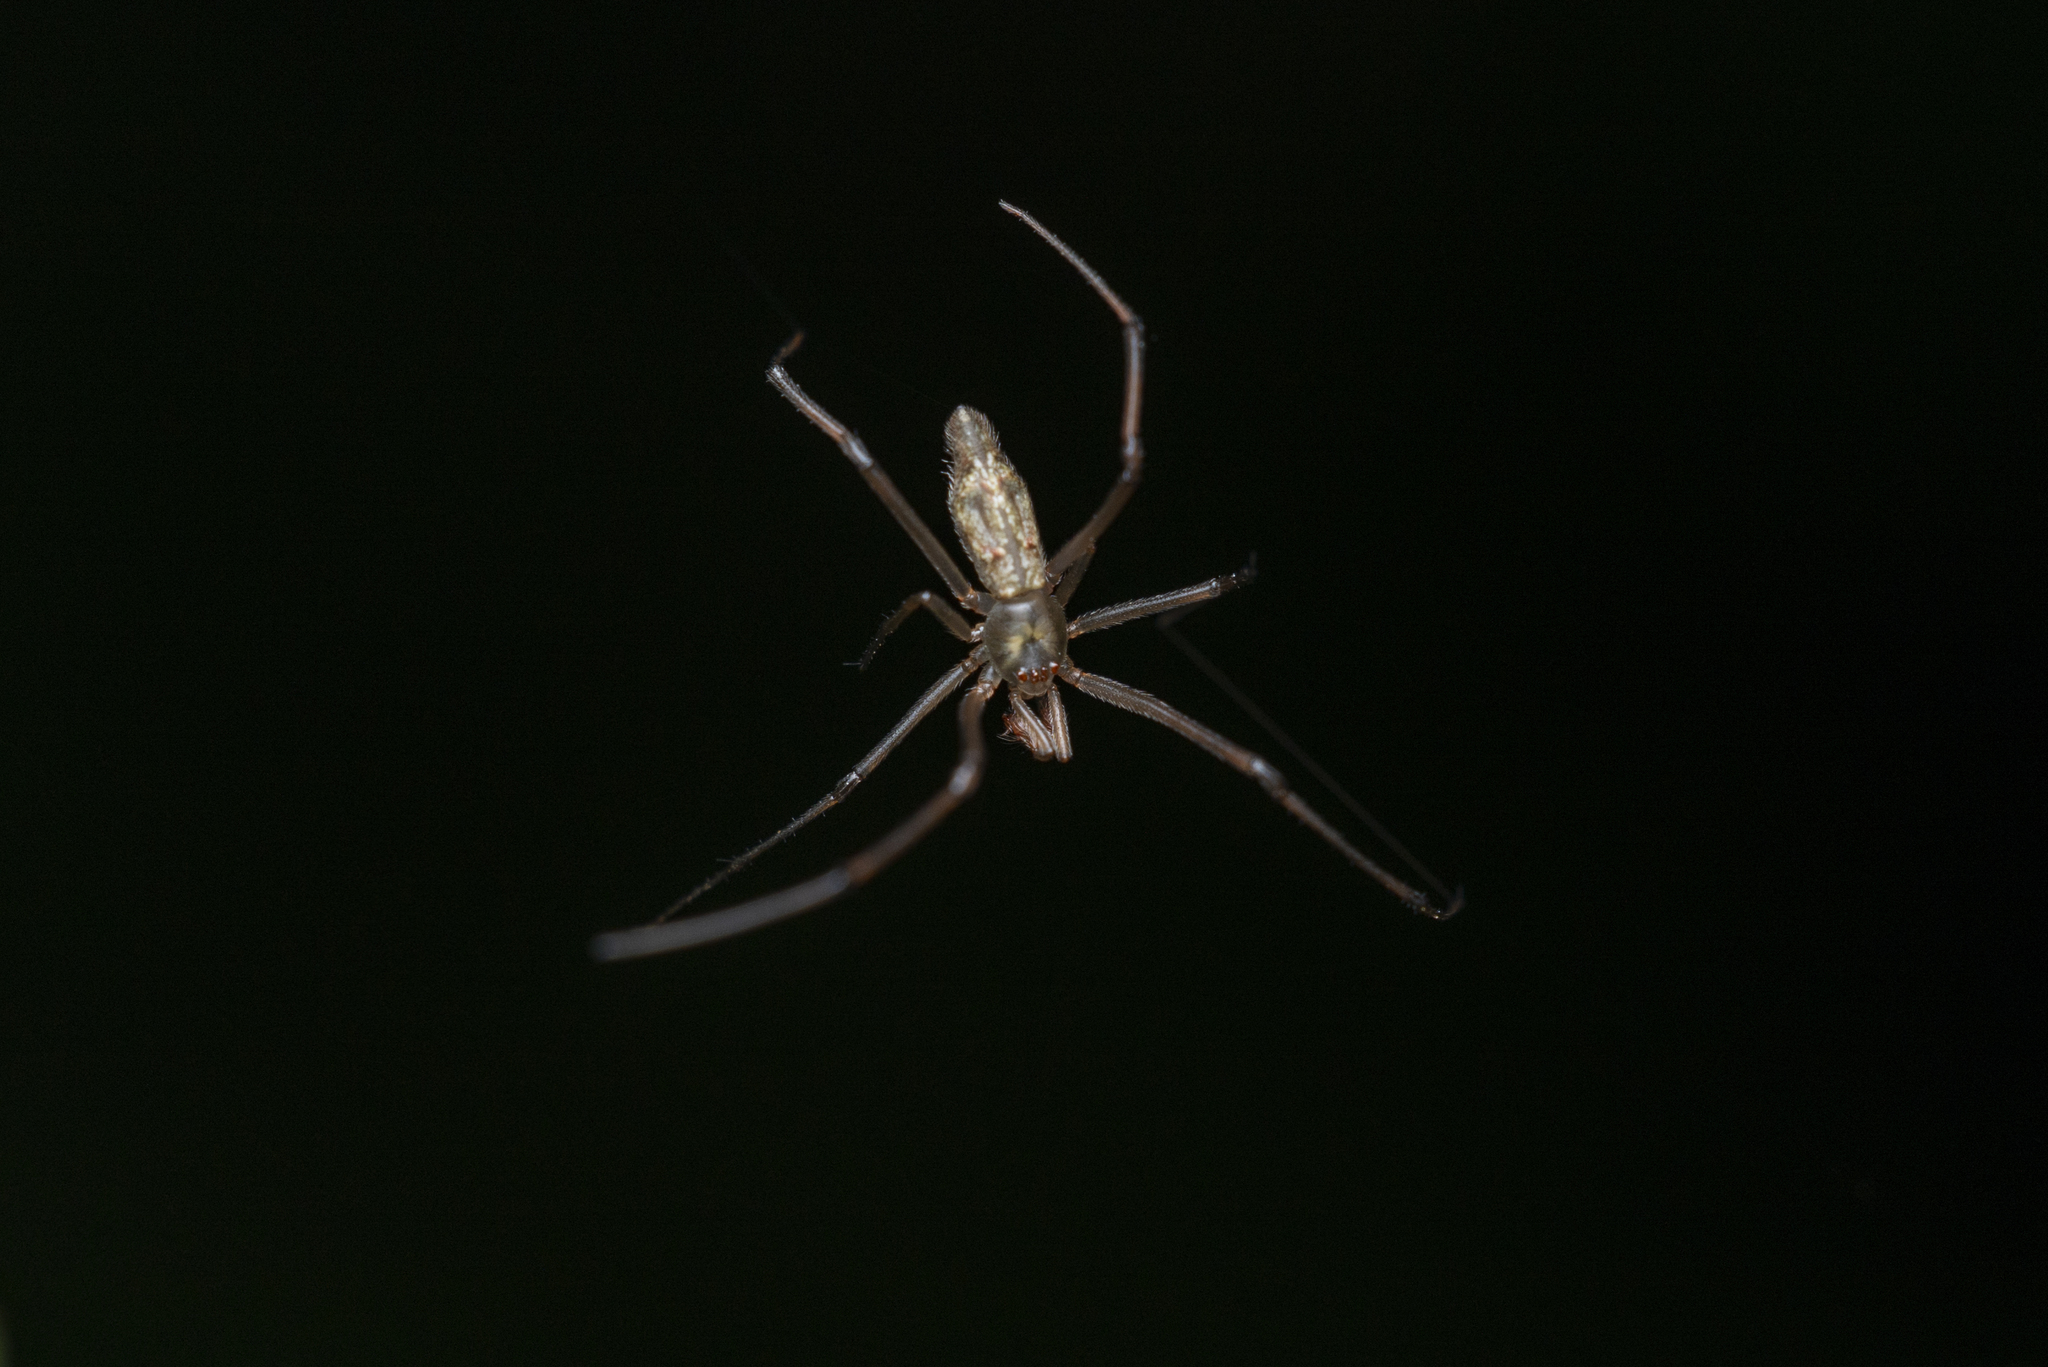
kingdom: Animalia
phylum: Arthropoda
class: Arachnida
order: Araneae
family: Theridiidae
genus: Moneta
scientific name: Moneta mirabilis
